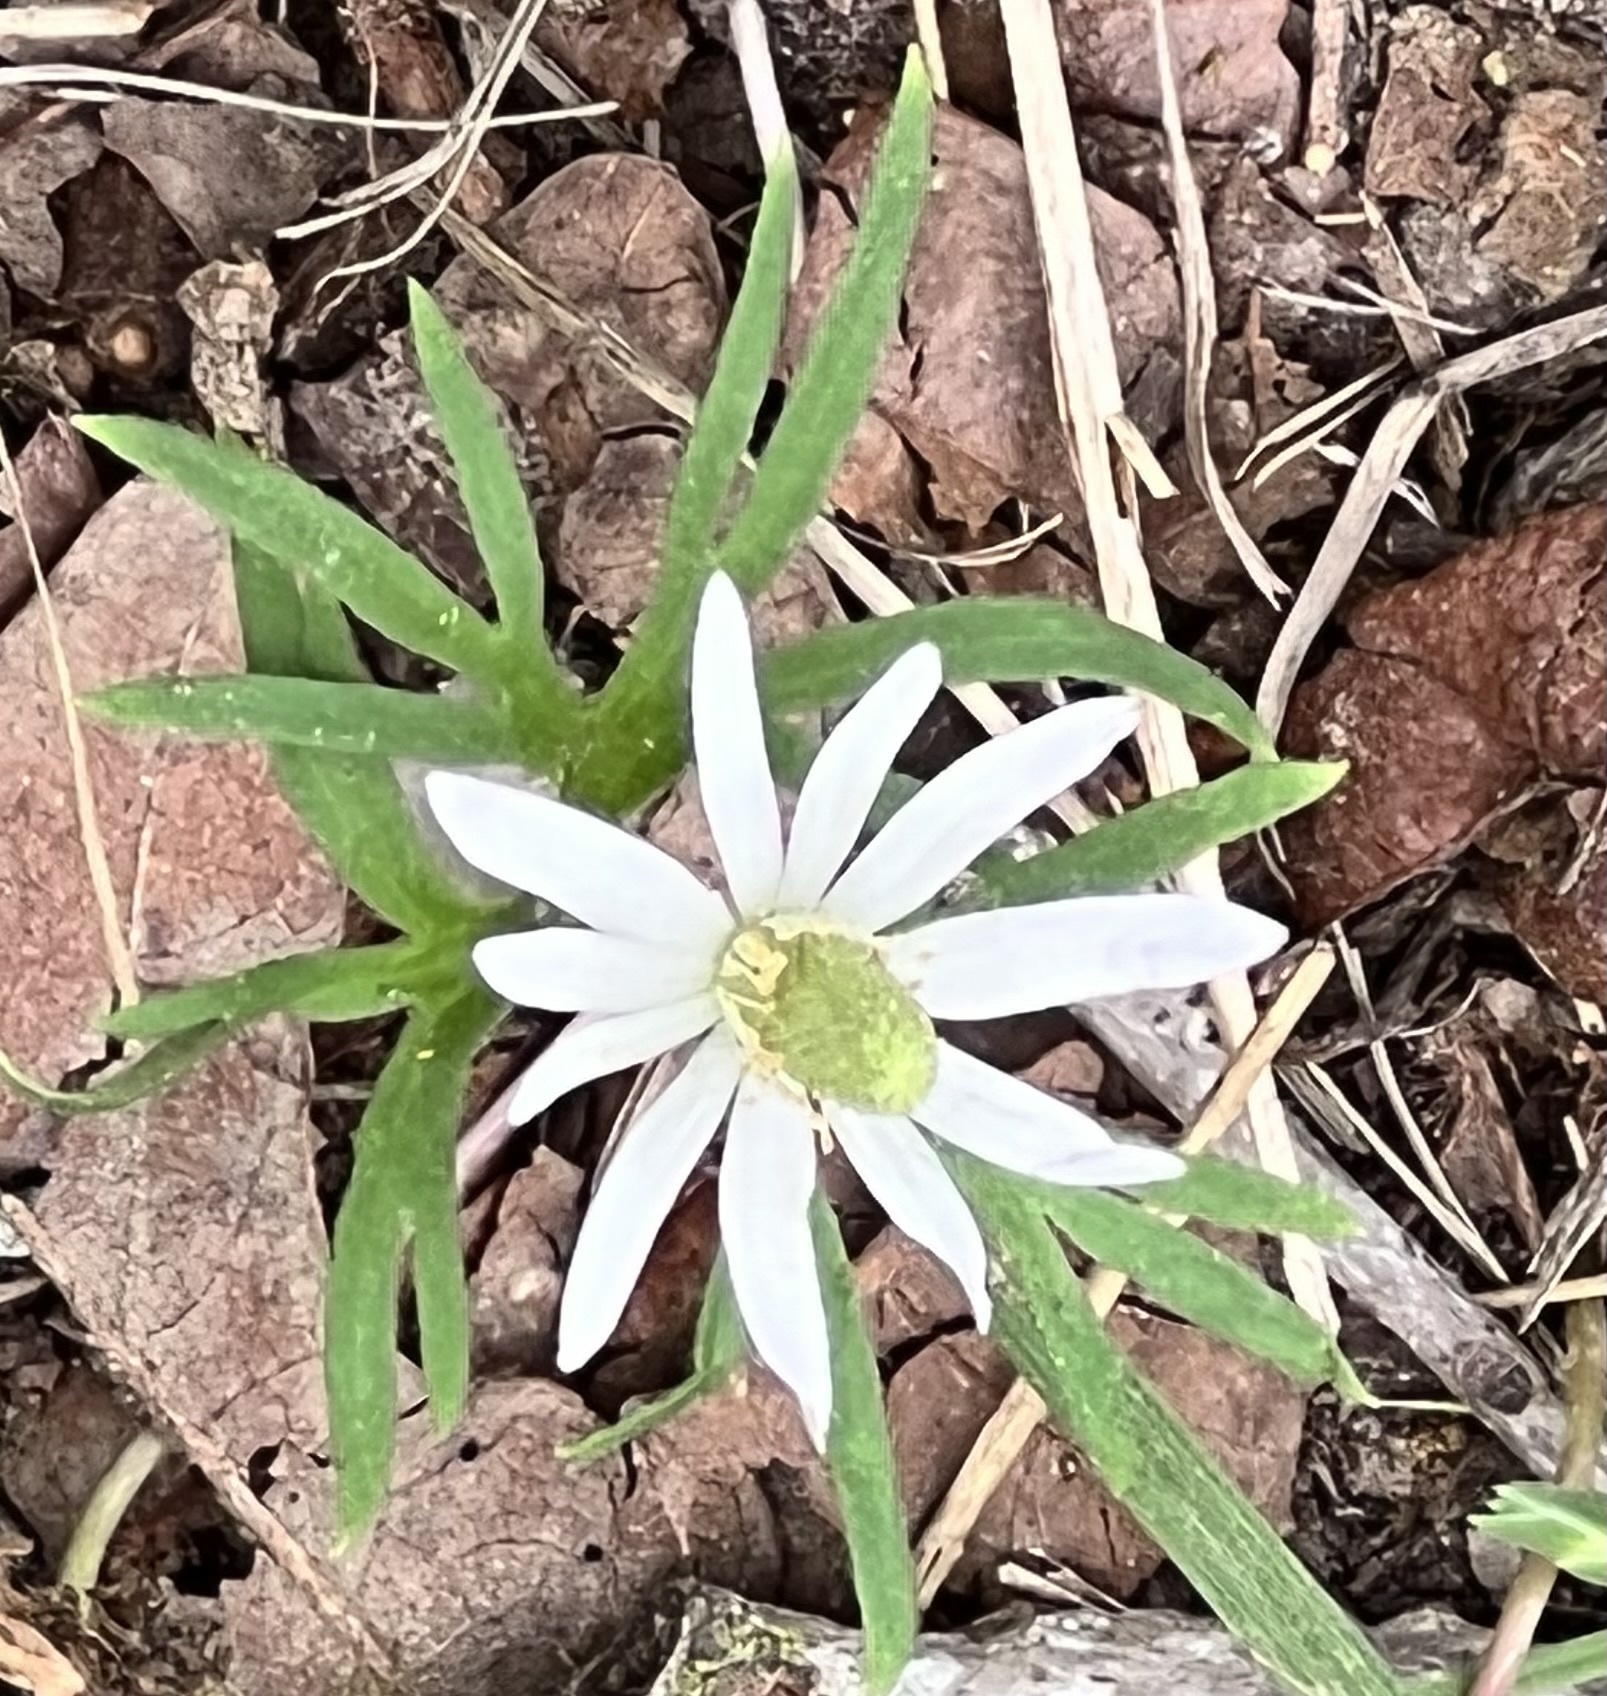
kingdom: Plantae
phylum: Tracheophyta
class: Magnoliopsida
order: Ranunculales
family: Ranunculaceae
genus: Anemone
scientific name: Anemone berlandieri
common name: Ten-petal anemone
